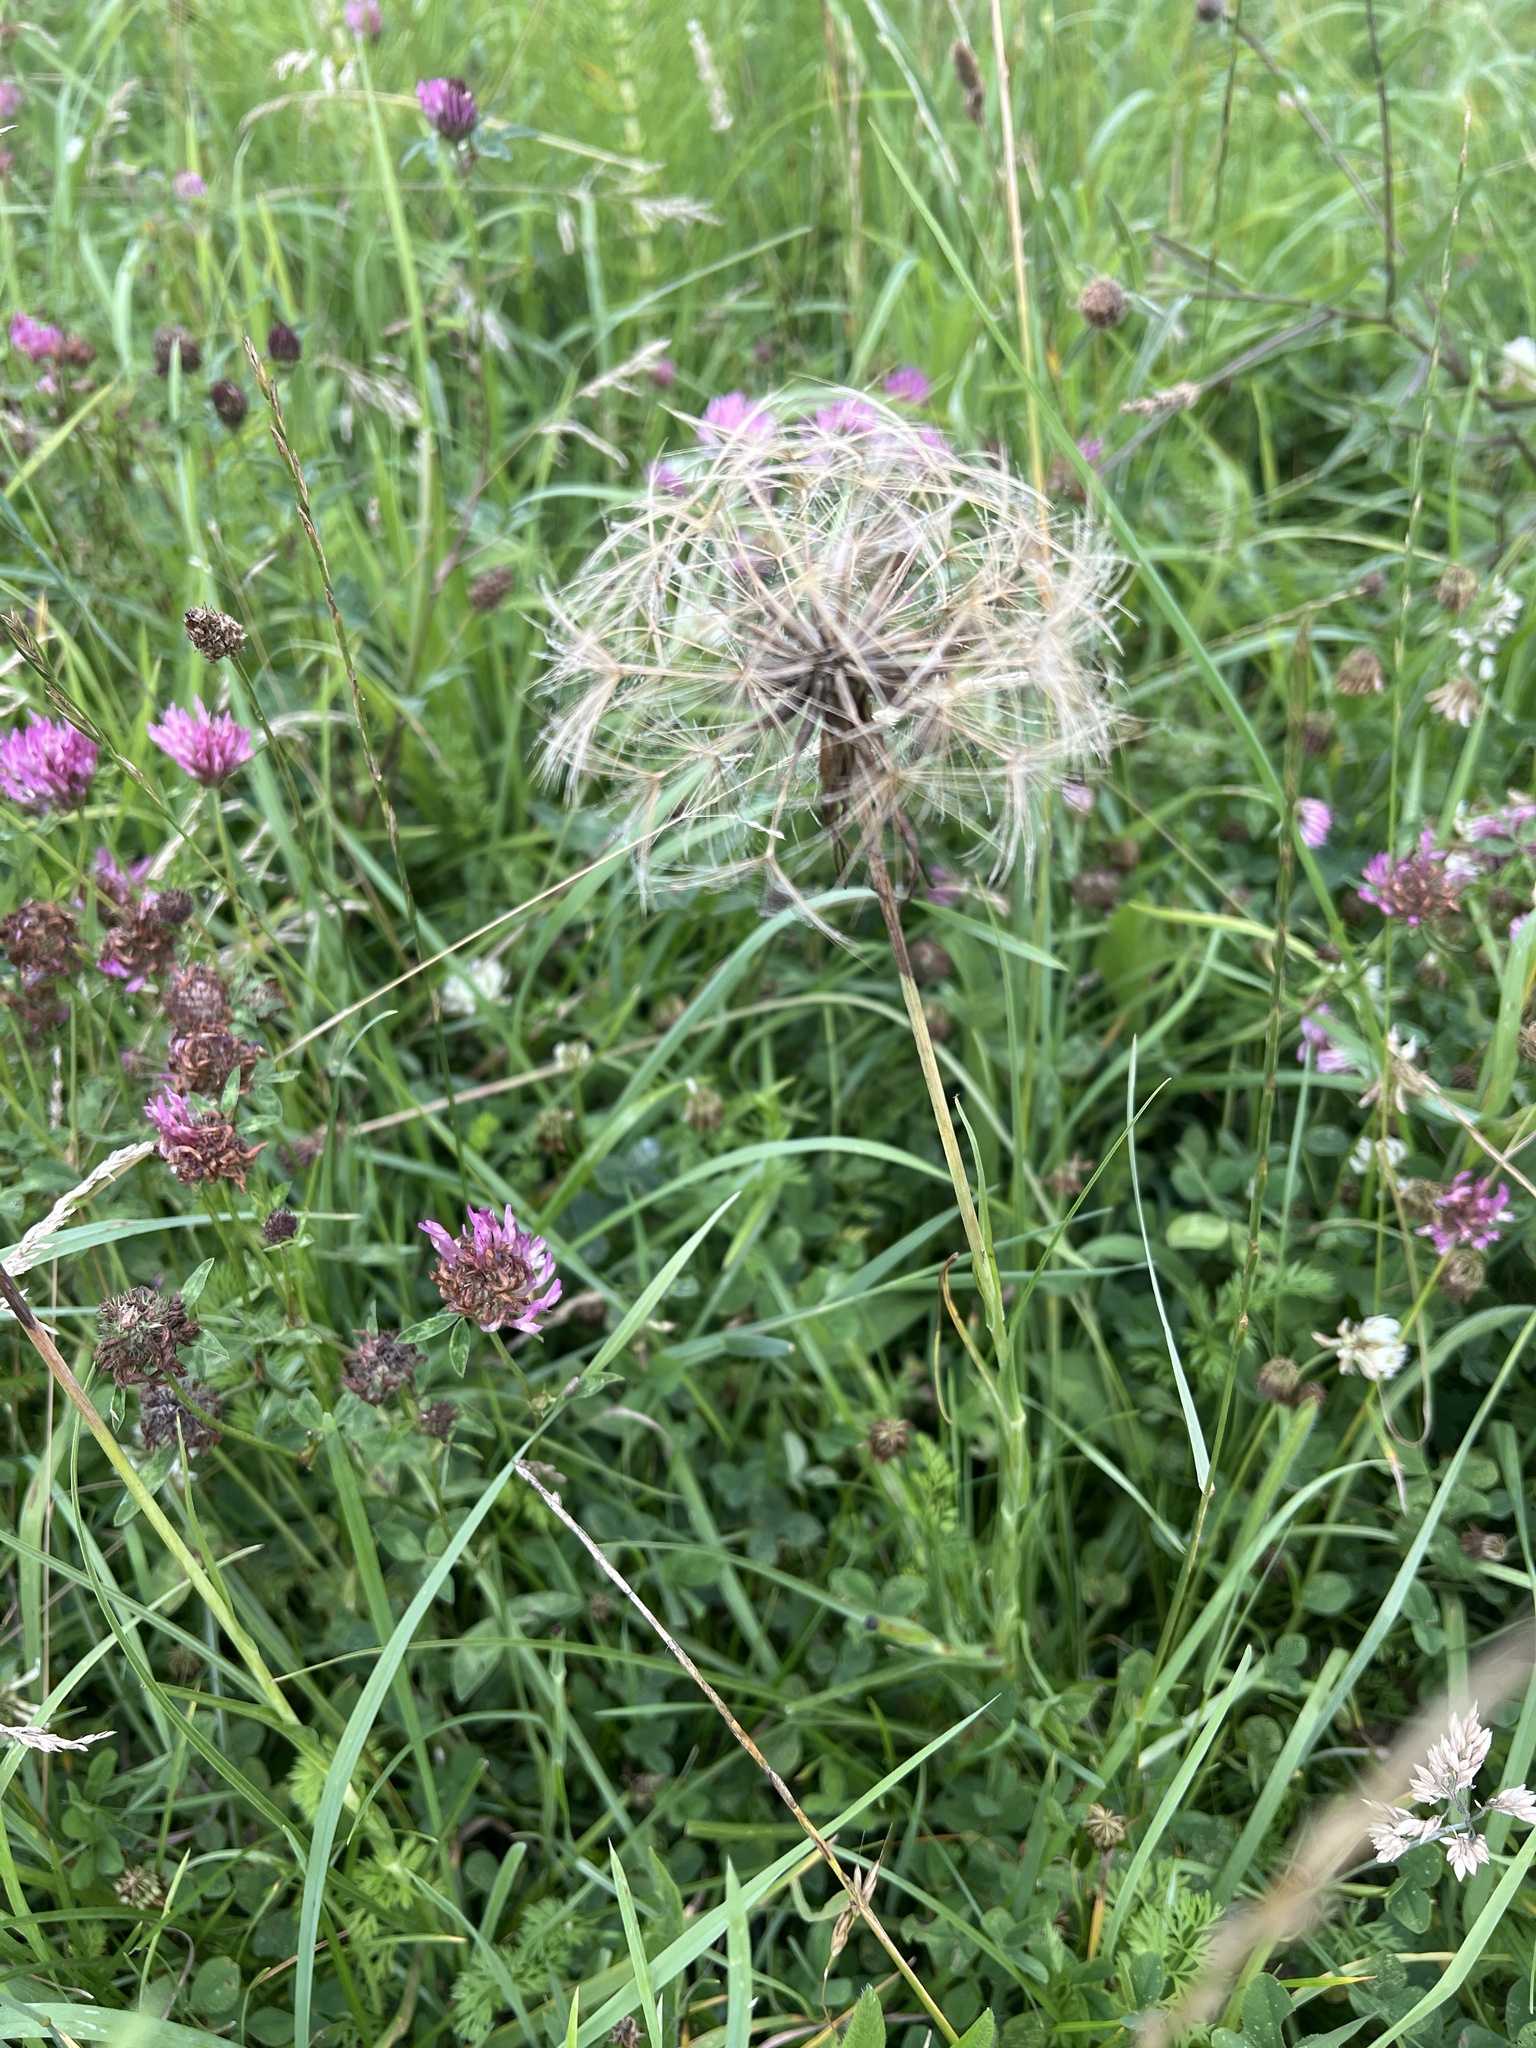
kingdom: Plantae
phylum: Tracheophyta
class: Magnoliopsida
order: Asterales
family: Asteraceae
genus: Tragopogon
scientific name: Tragopogon pratensis
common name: Goat's-beard
